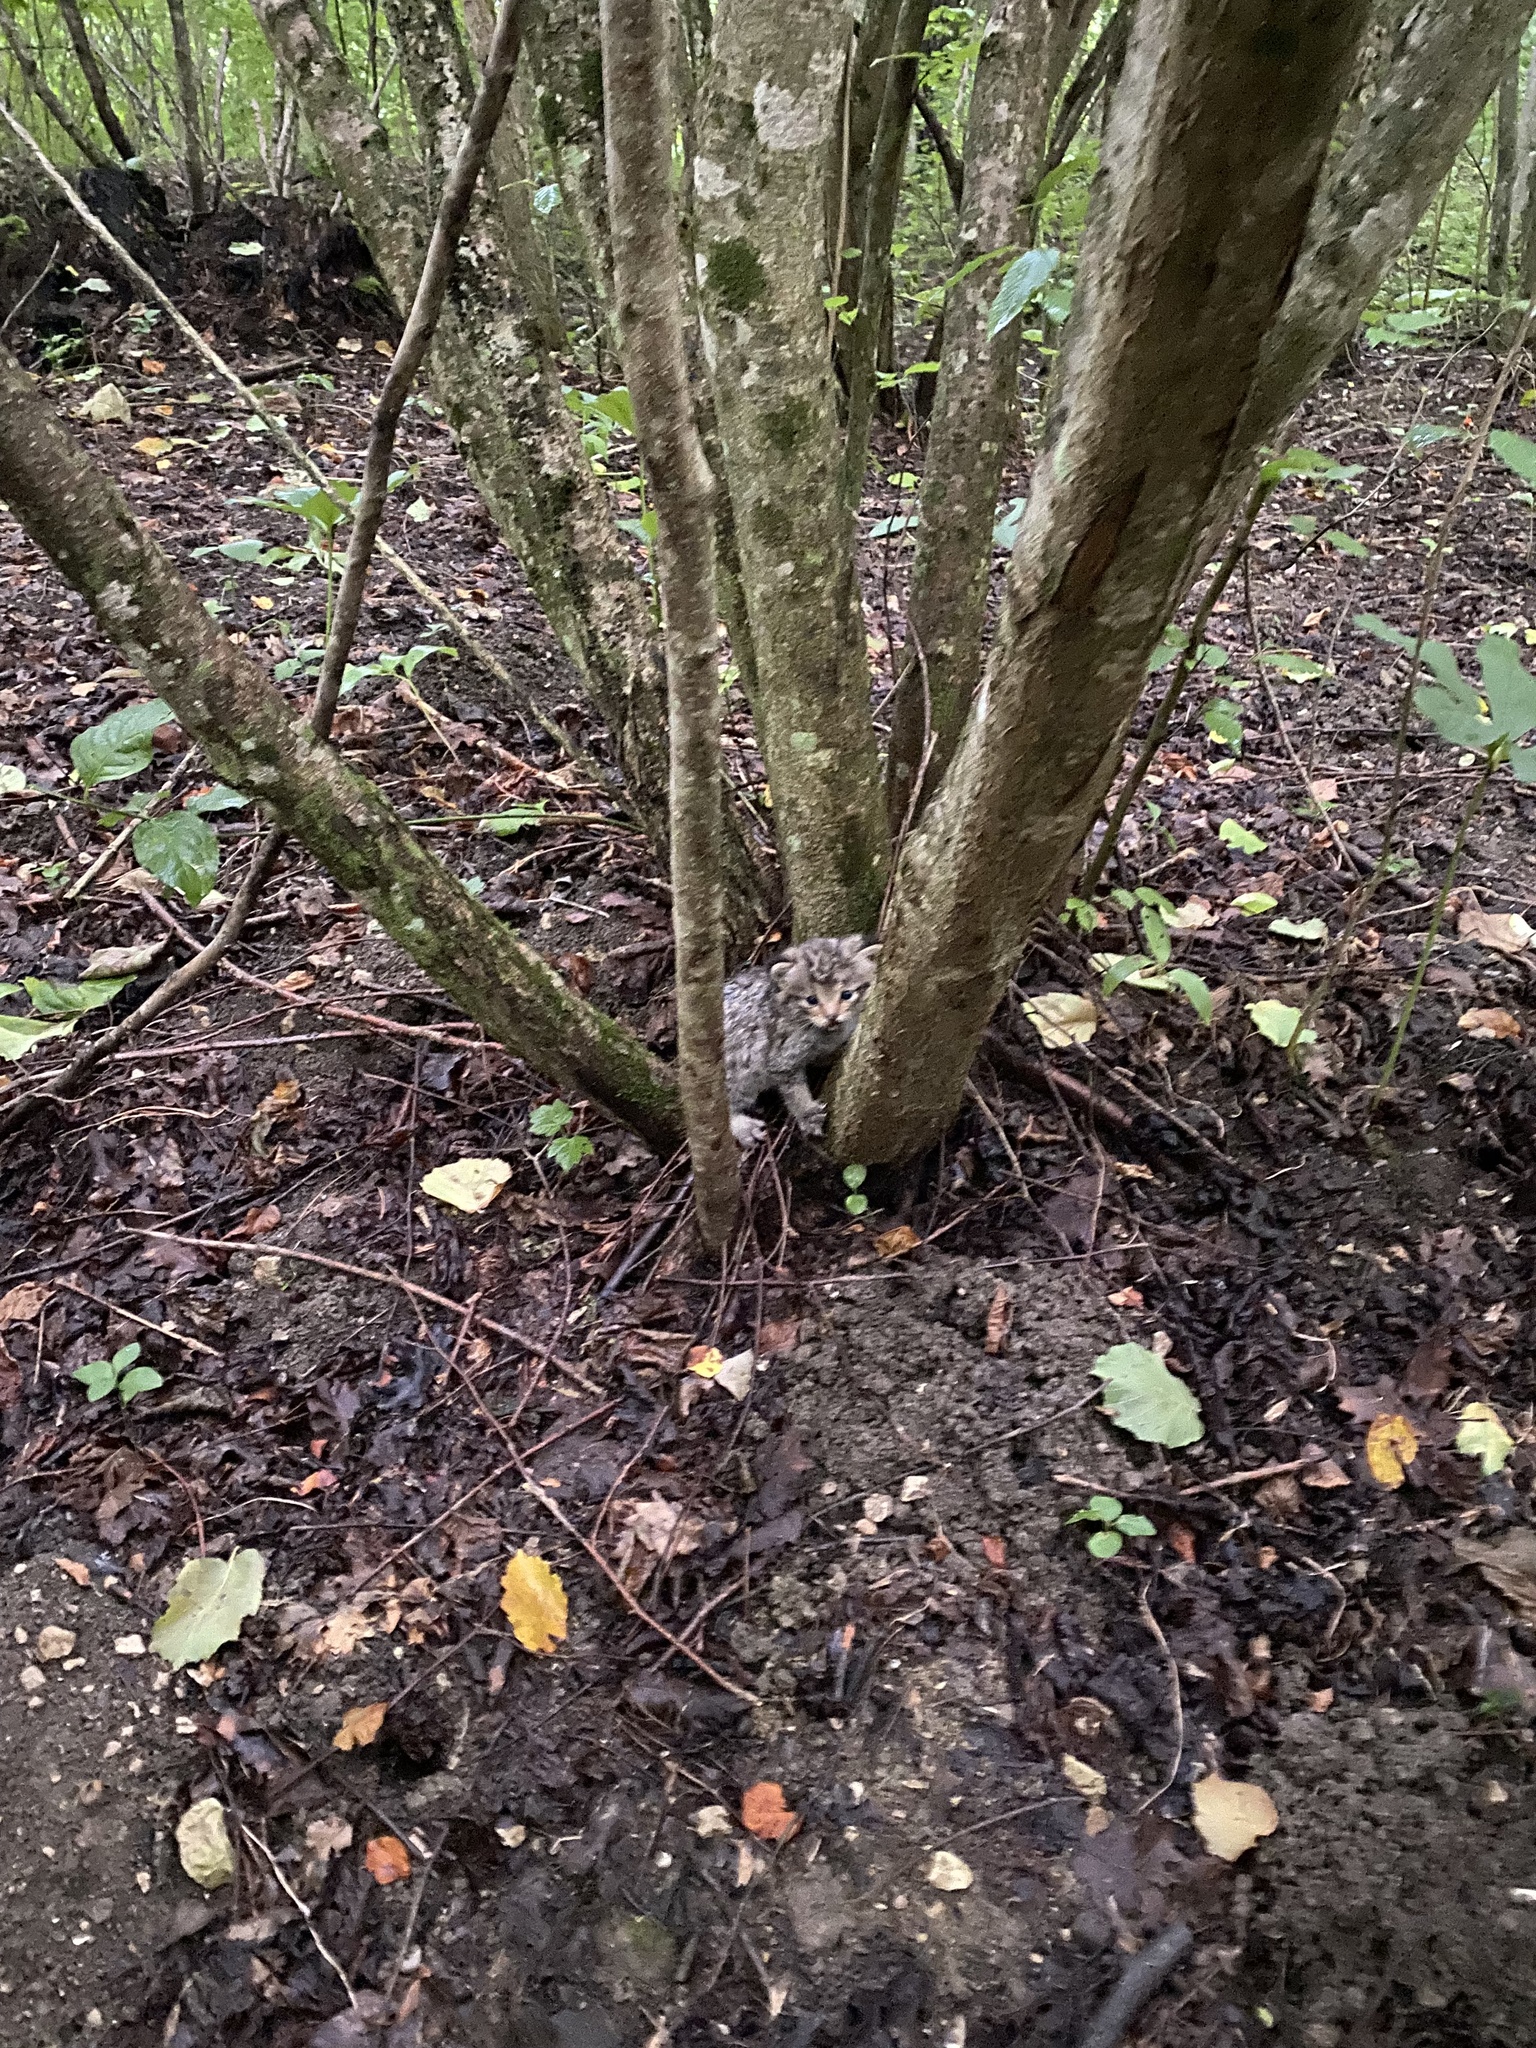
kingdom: Animalia
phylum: Chordata
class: Mammalia
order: Carnivora
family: Felidae
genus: Felis
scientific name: Felis silvestris
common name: Wildcat
